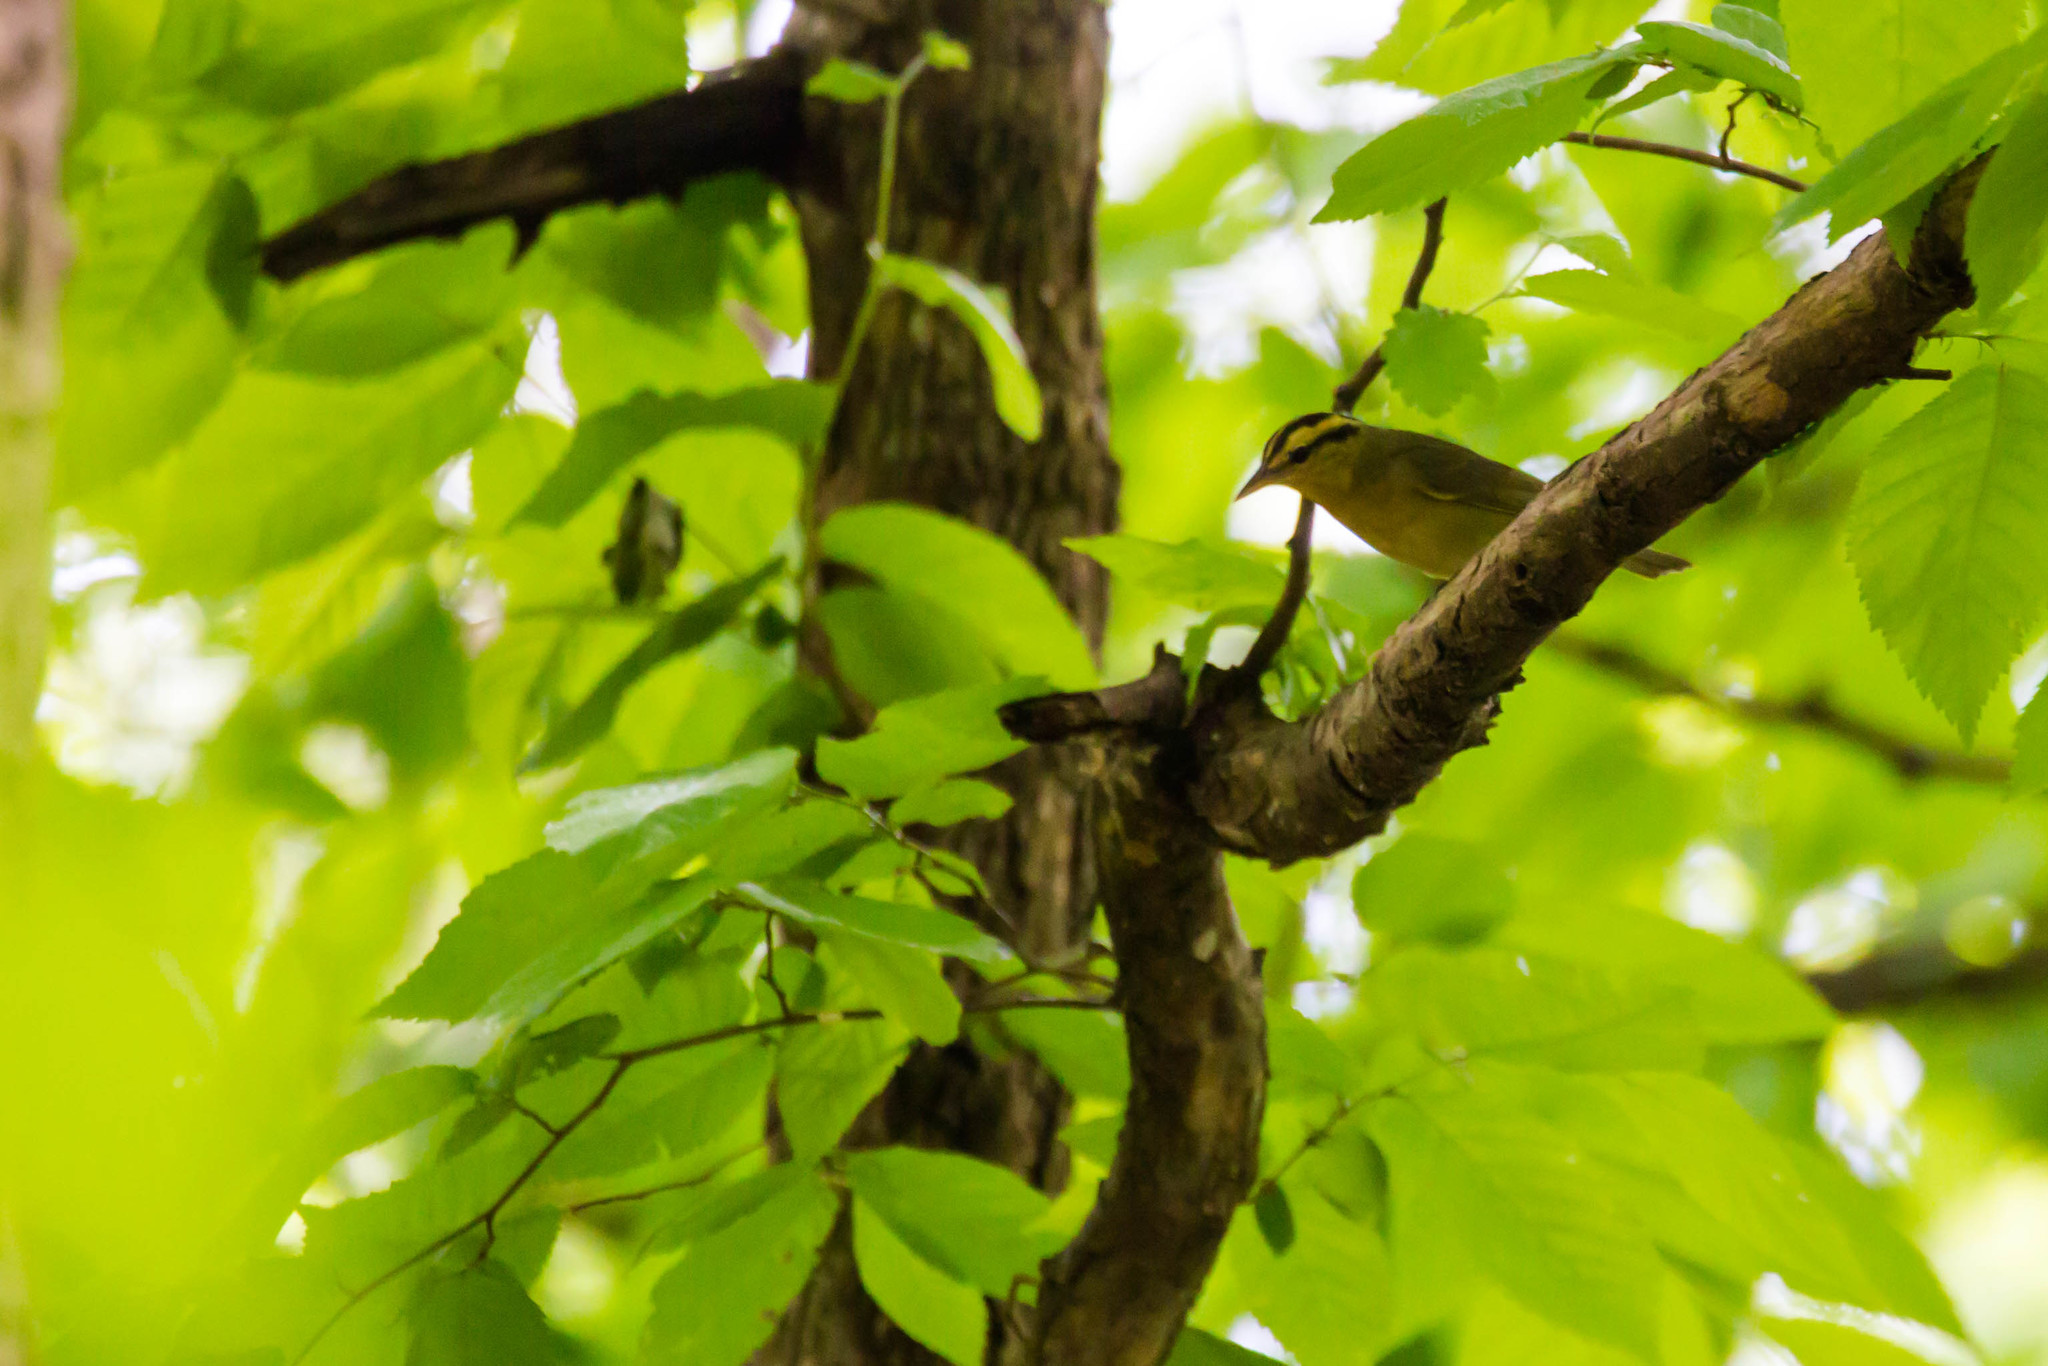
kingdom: Animalia
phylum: Chordata
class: Aves
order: Passeriformes
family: Parulidae
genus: Helmitheros
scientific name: Helmitheros vermivorum
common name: Worm-eating warbler
